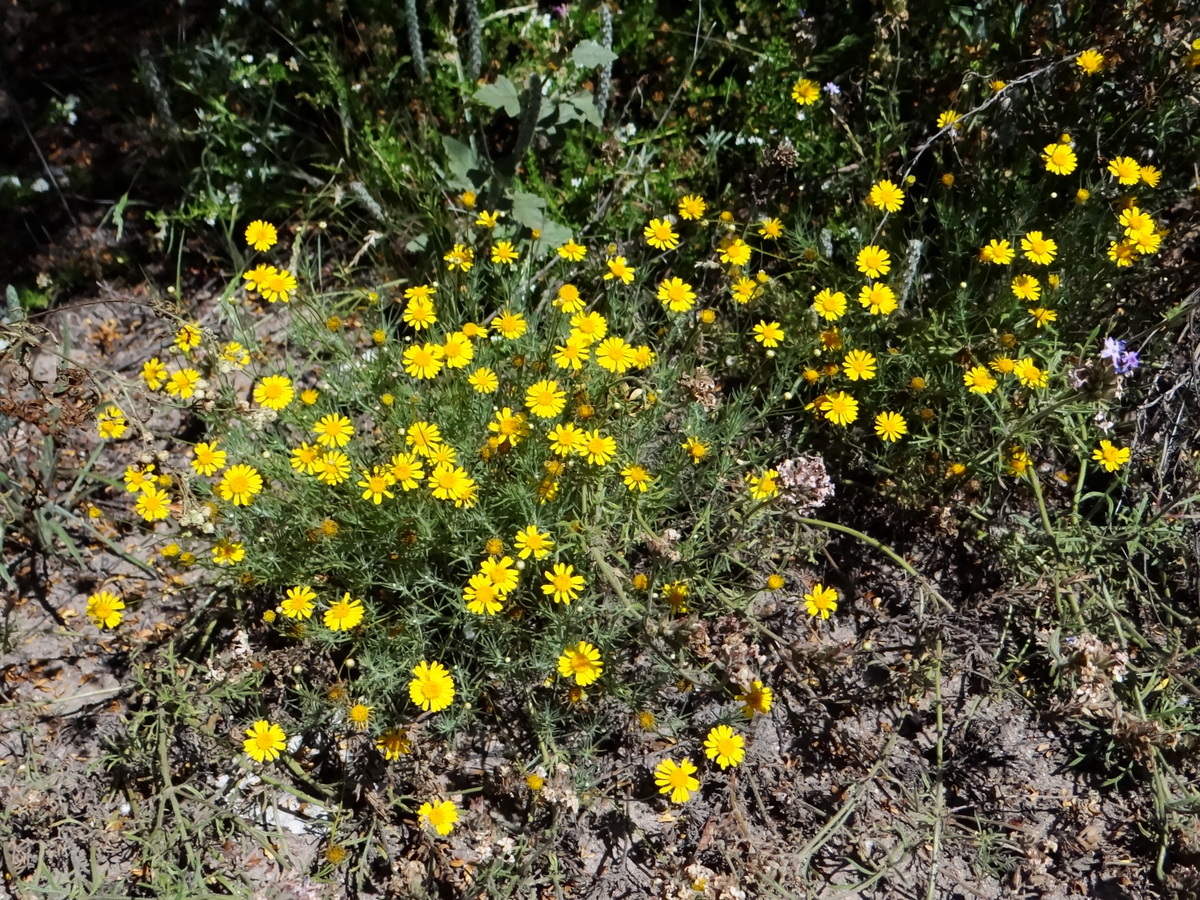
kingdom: Plantae
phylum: Tracheophyta
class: Magnoliopsida
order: Asterales
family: Asteraceae
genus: Thymophylla
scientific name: Thymophylla pentachaeta
